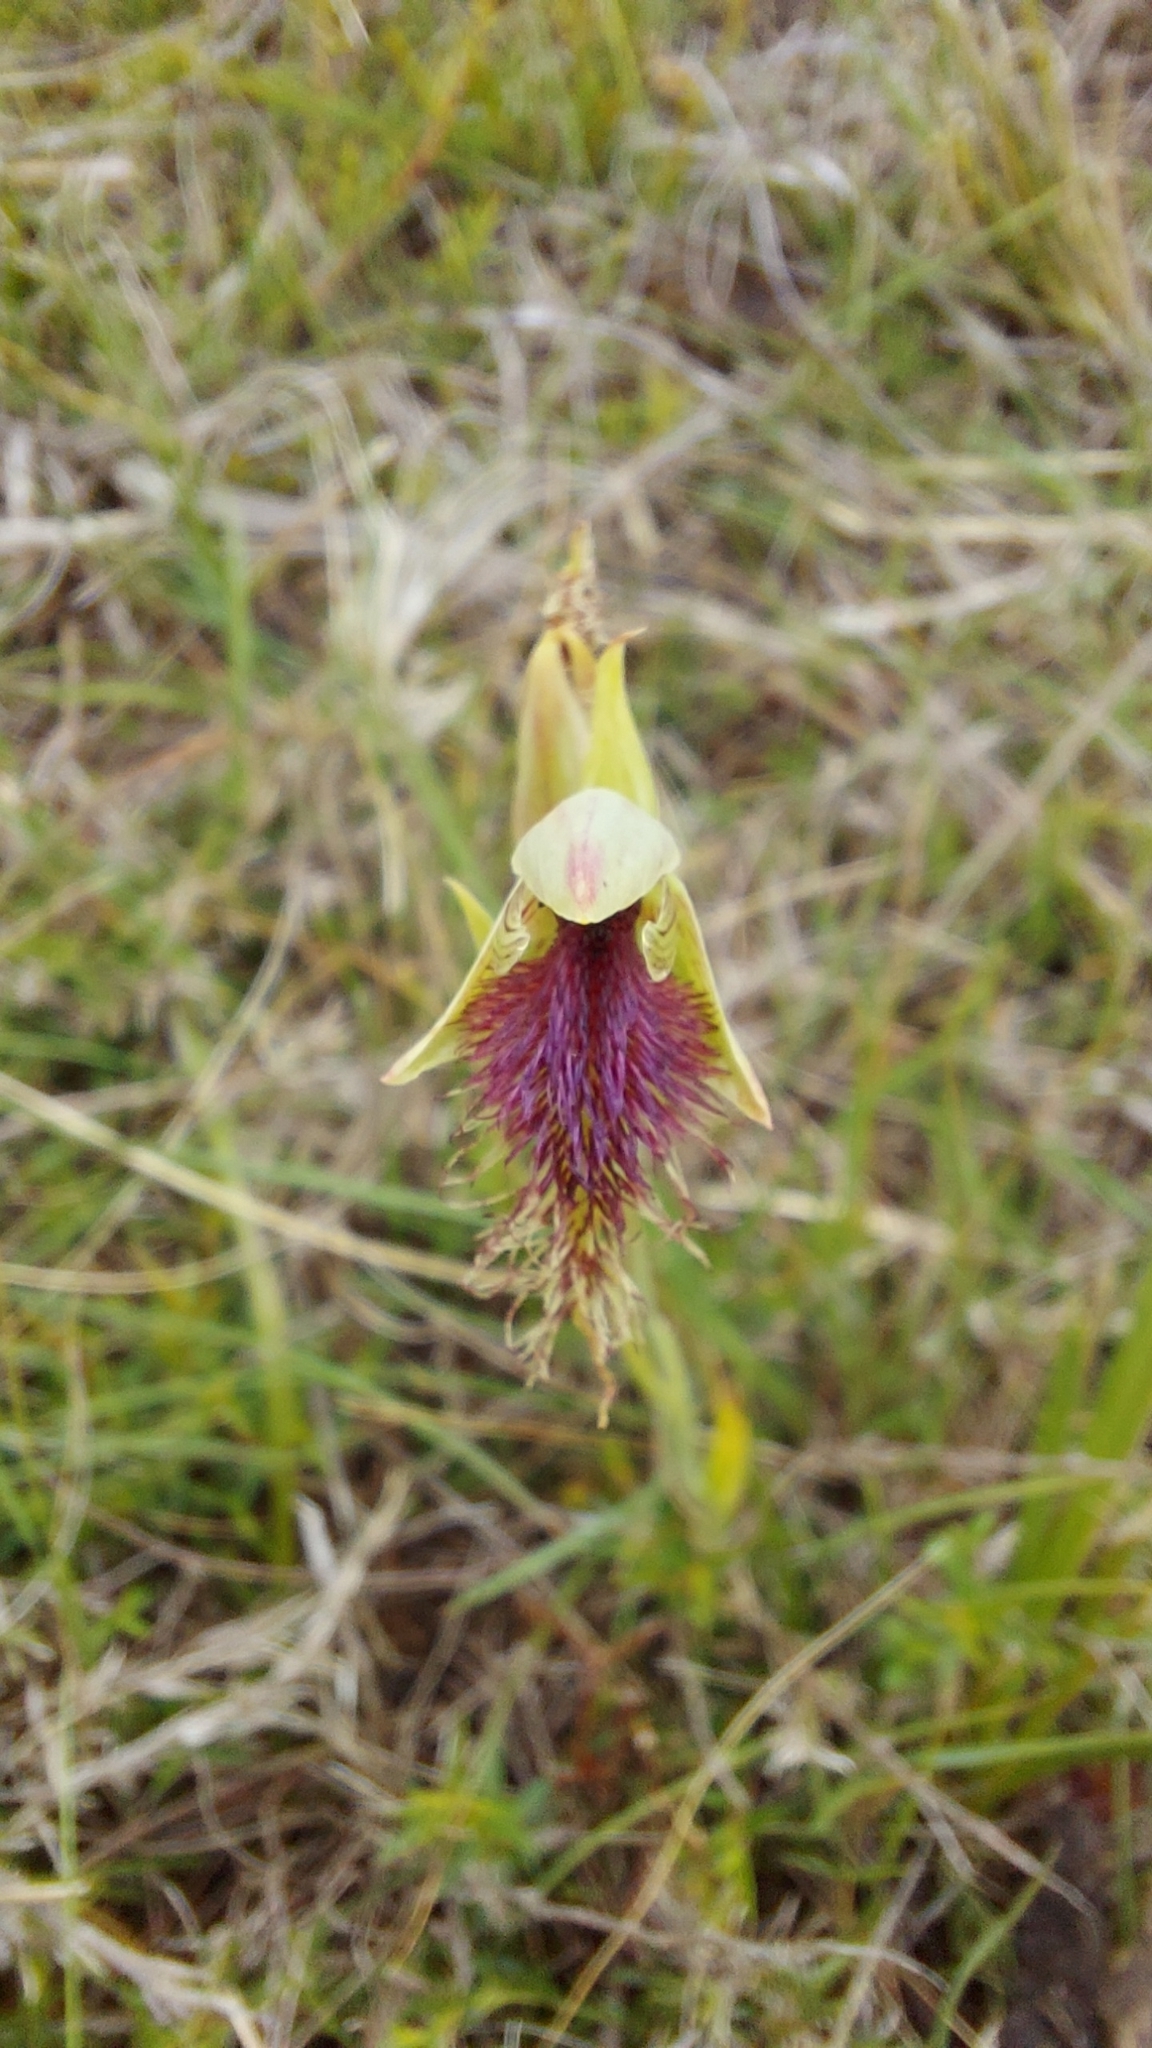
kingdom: Plantae
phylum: Tracheophyta
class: Liliopsida
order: Asparagales
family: Orchidaceae
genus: Calochilus
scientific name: Calochilus robertsonii
